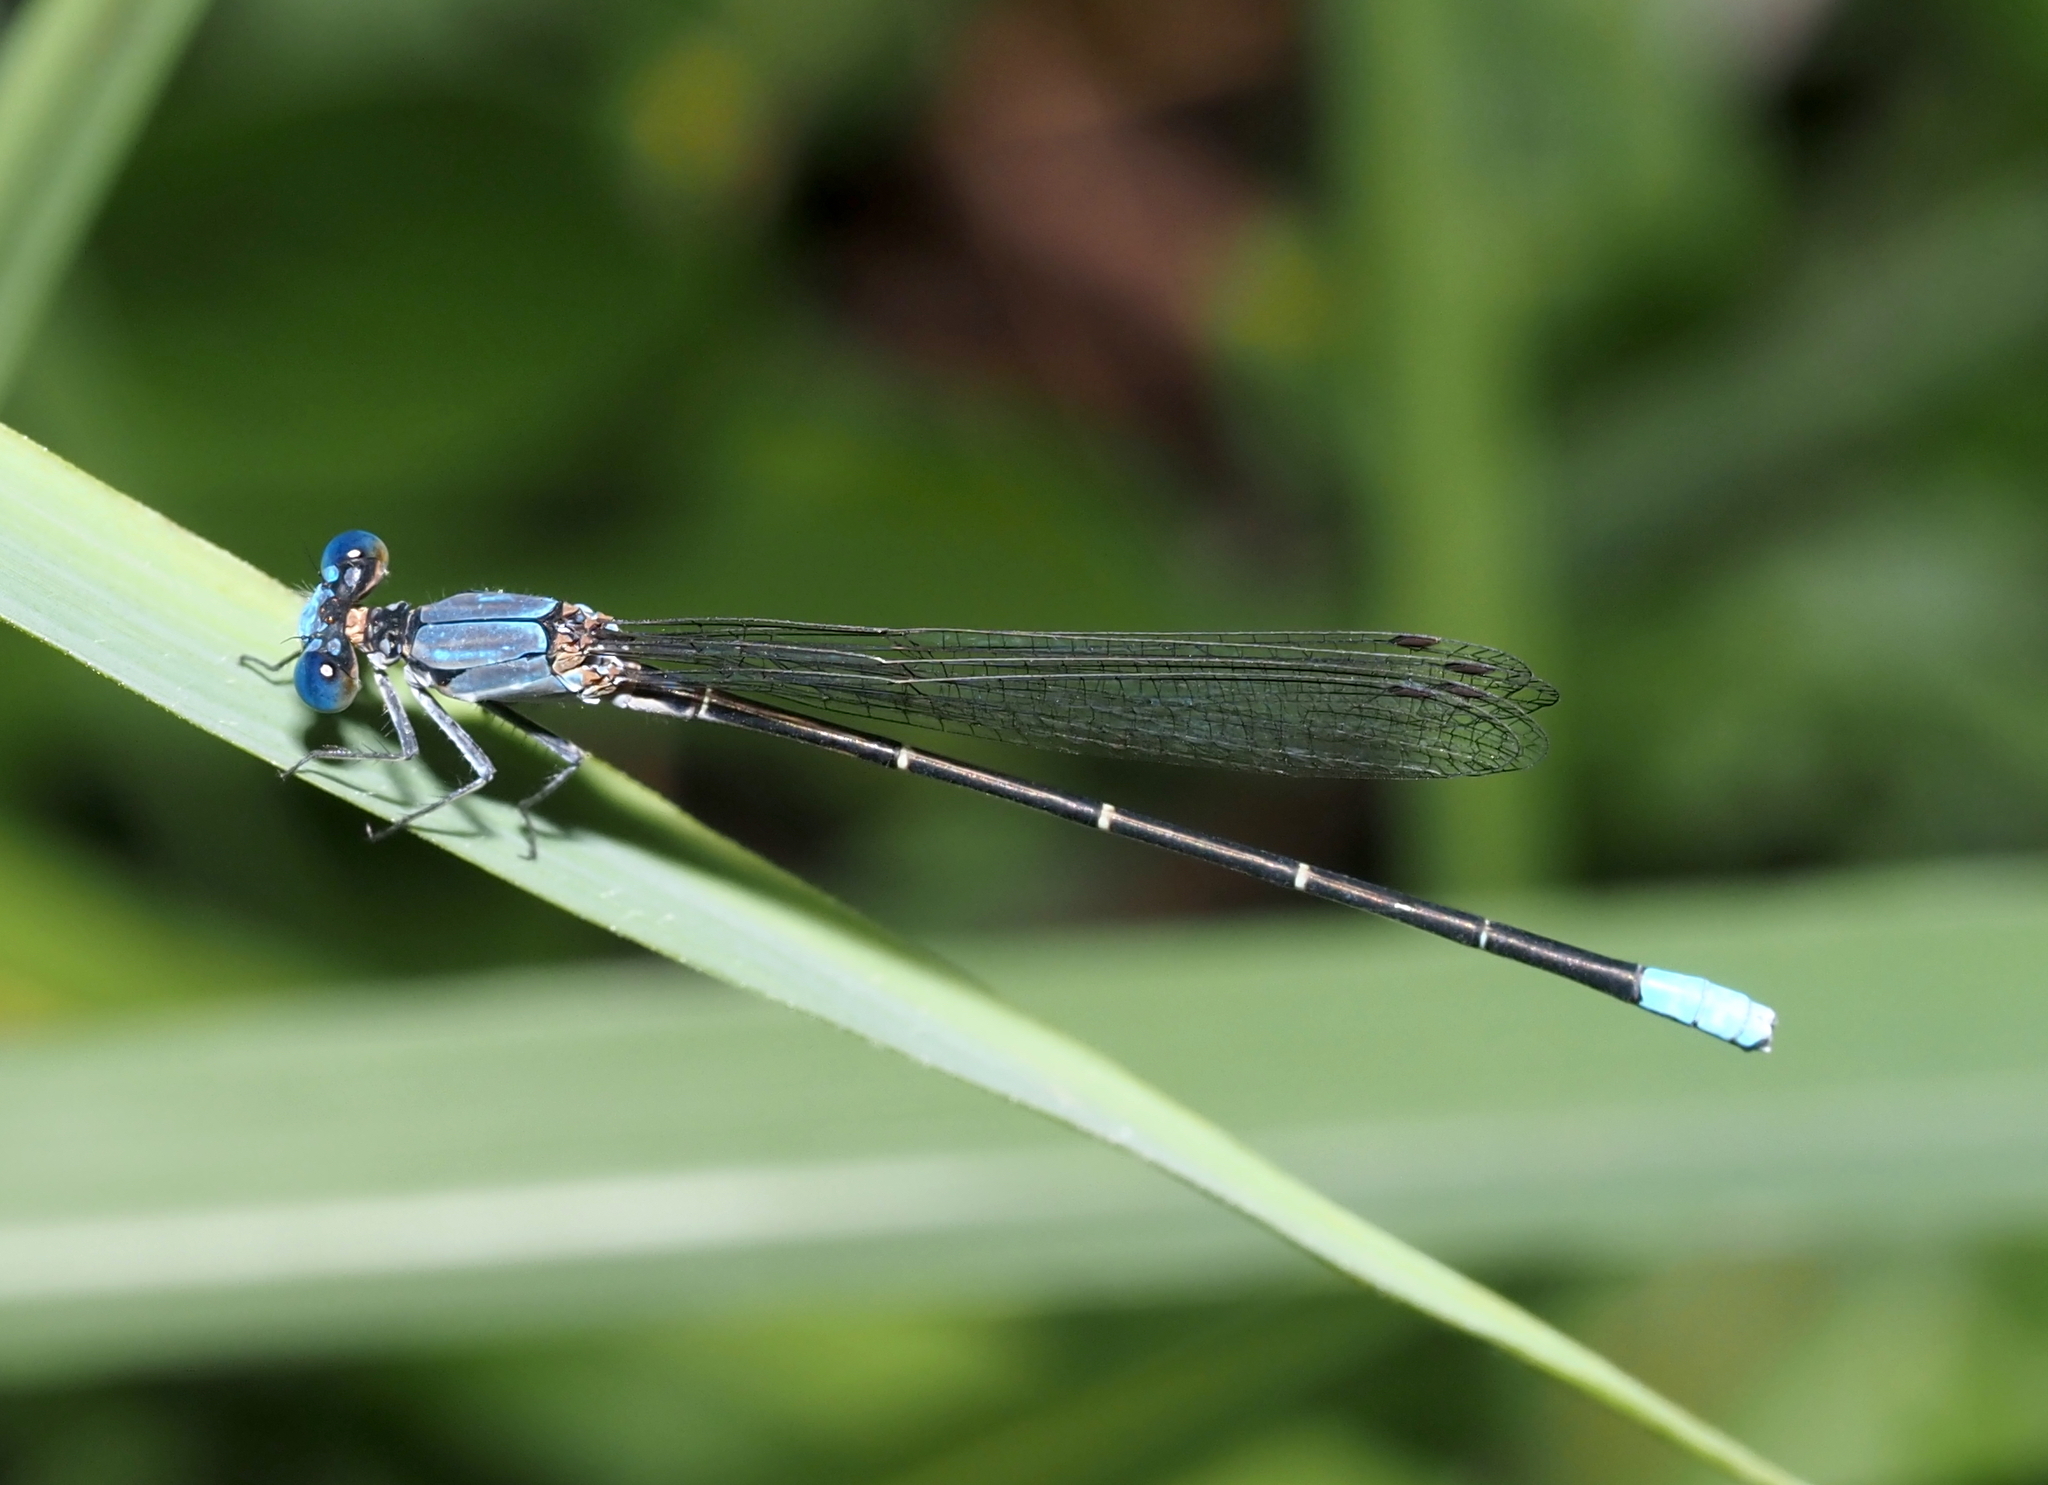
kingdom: Animalia
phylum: Arthropoda
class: Insecta
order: Odonata
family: Coenagrionidae
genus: Argia
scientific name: Argia apicalis
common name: Blue-fronted dancer
